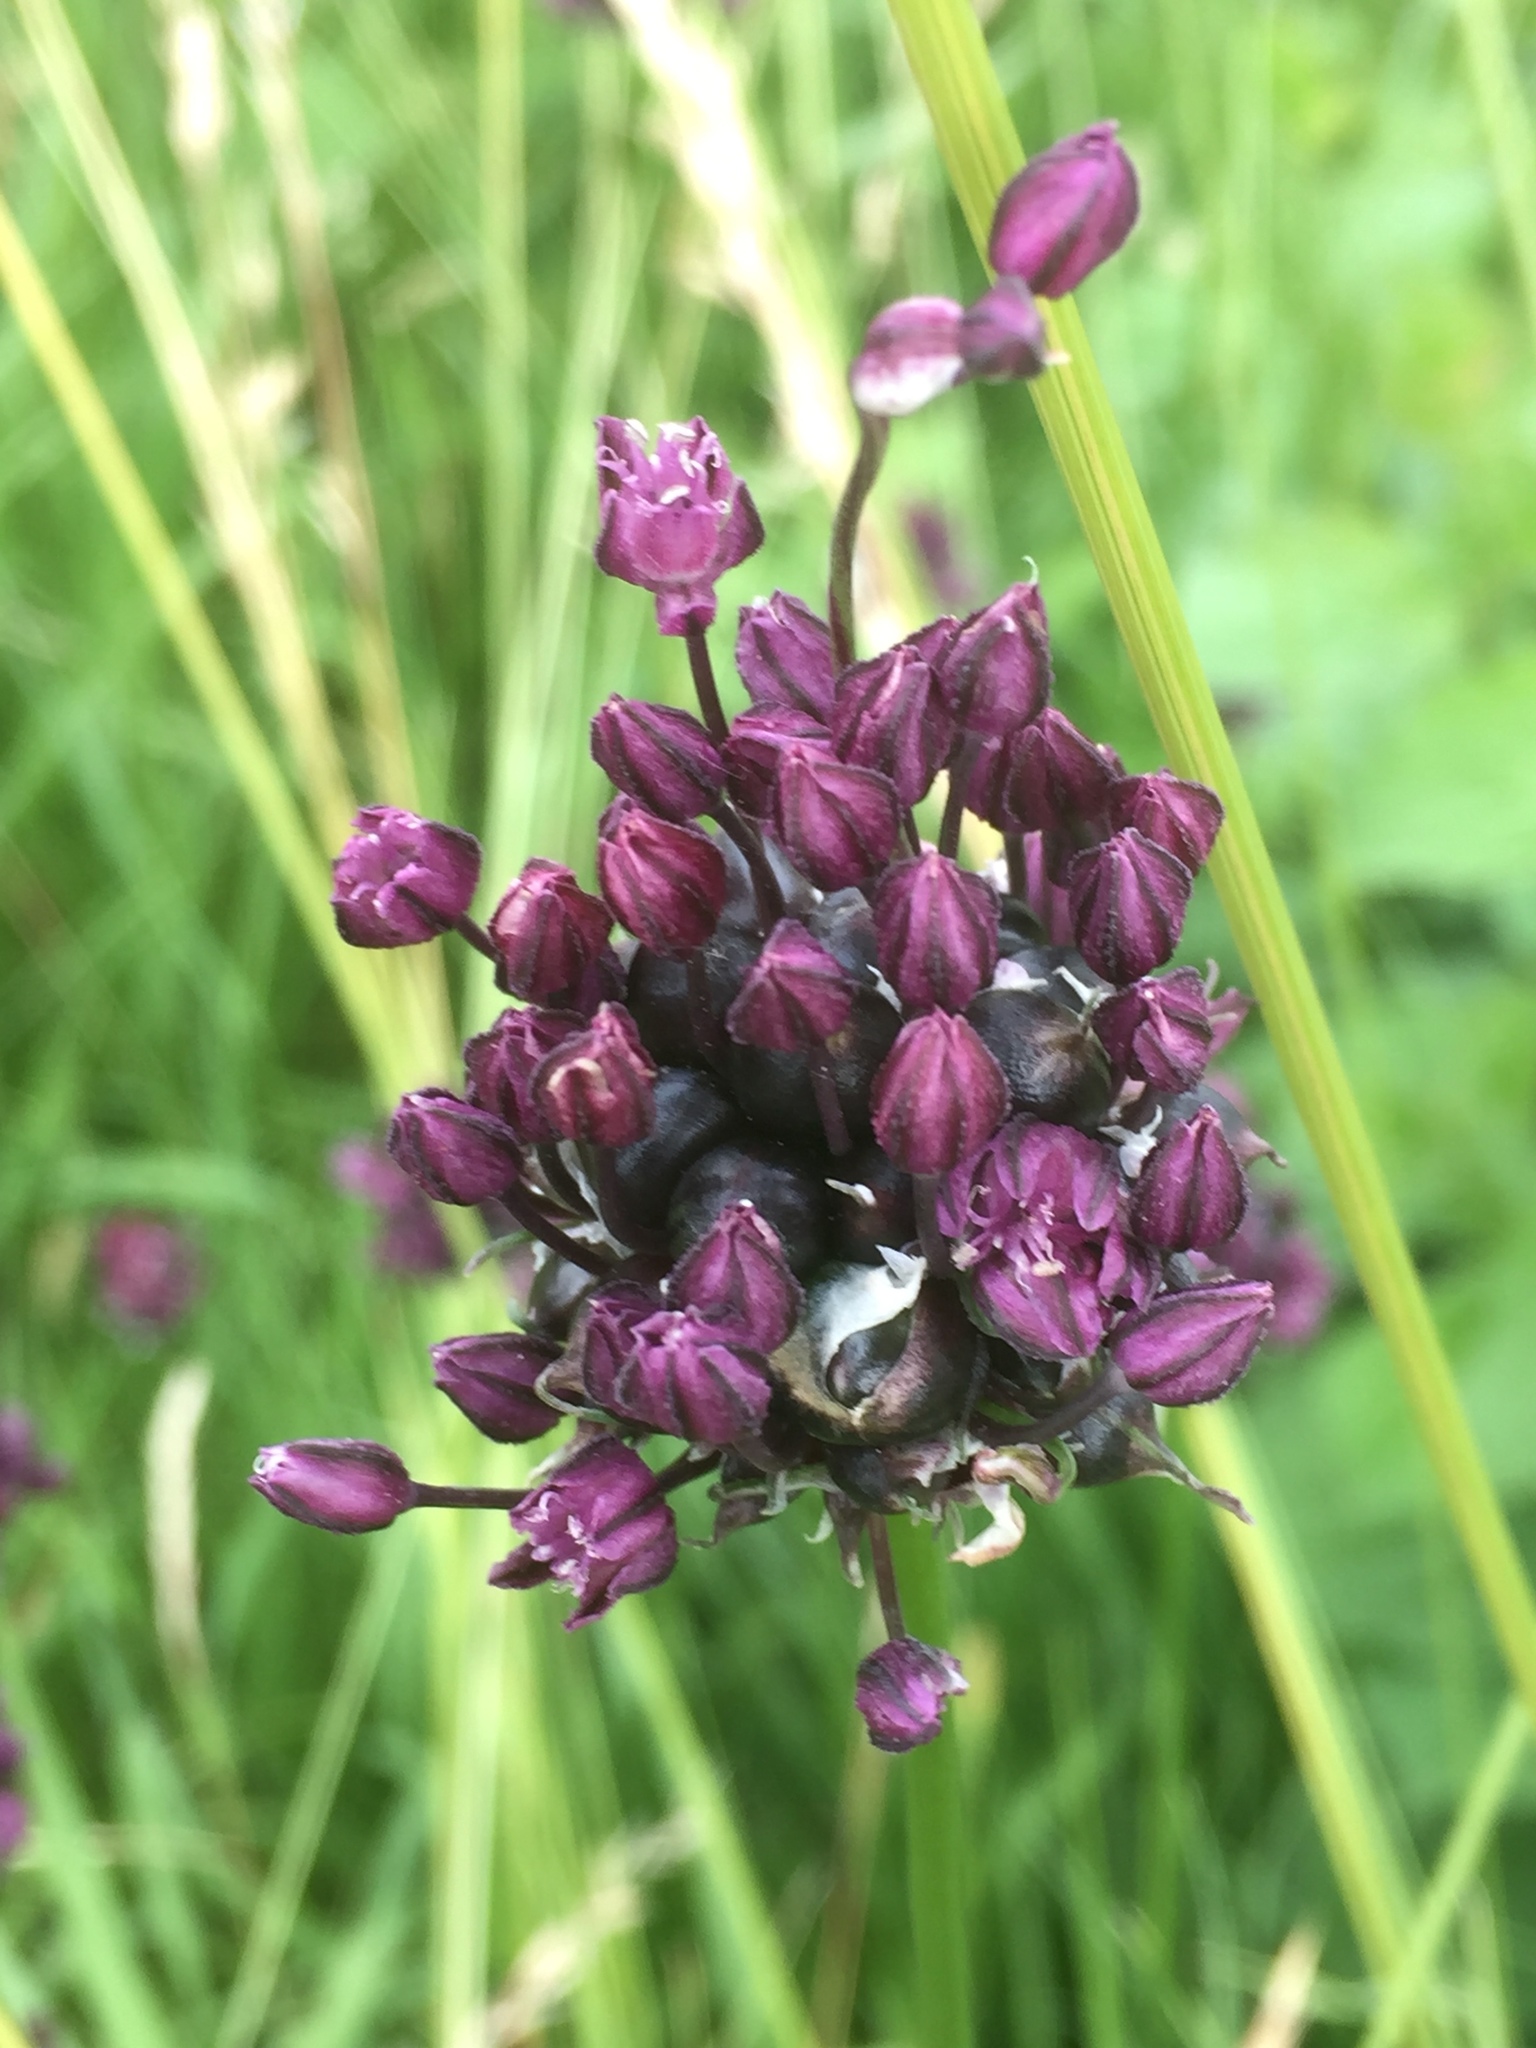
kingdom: Plantae
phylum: Tracheophyta
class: Liliopsida
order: Asparagales
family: Amaryllidaceae
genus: Allium
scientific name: Allium scorodoprasum
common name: Sand leek
